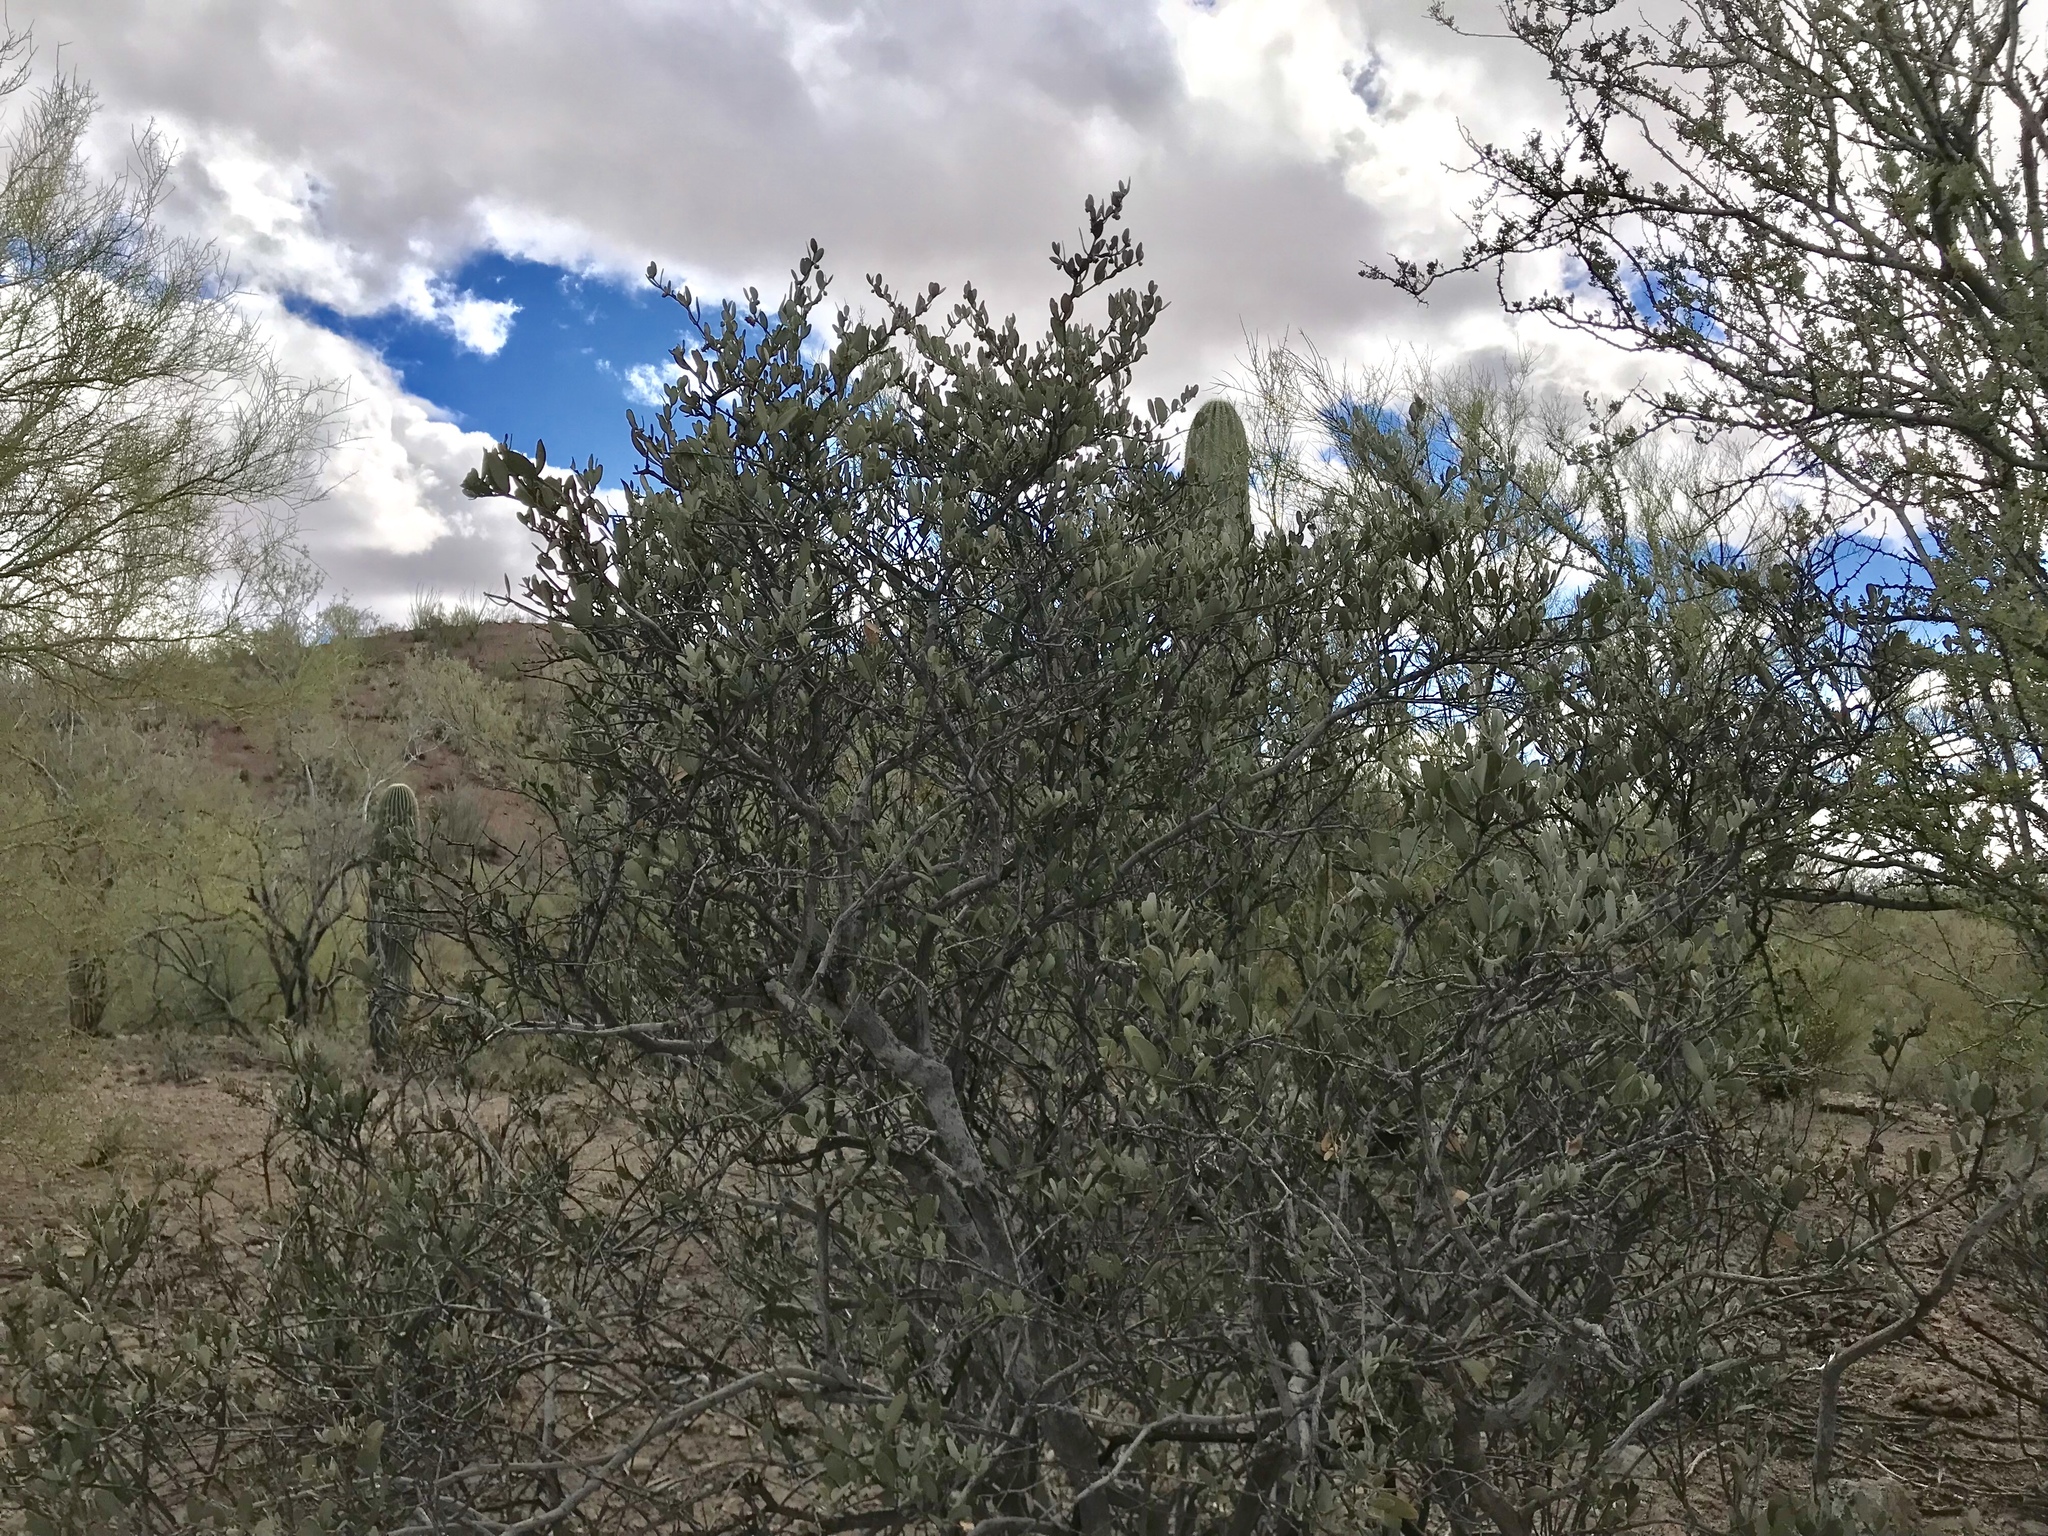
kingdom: Plantae
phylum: Tracheophyta
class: Magnoliopsida
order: Fabales
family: Fabaceae
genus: Olneya
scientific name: Olneya tesota
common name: Desert ironwood
